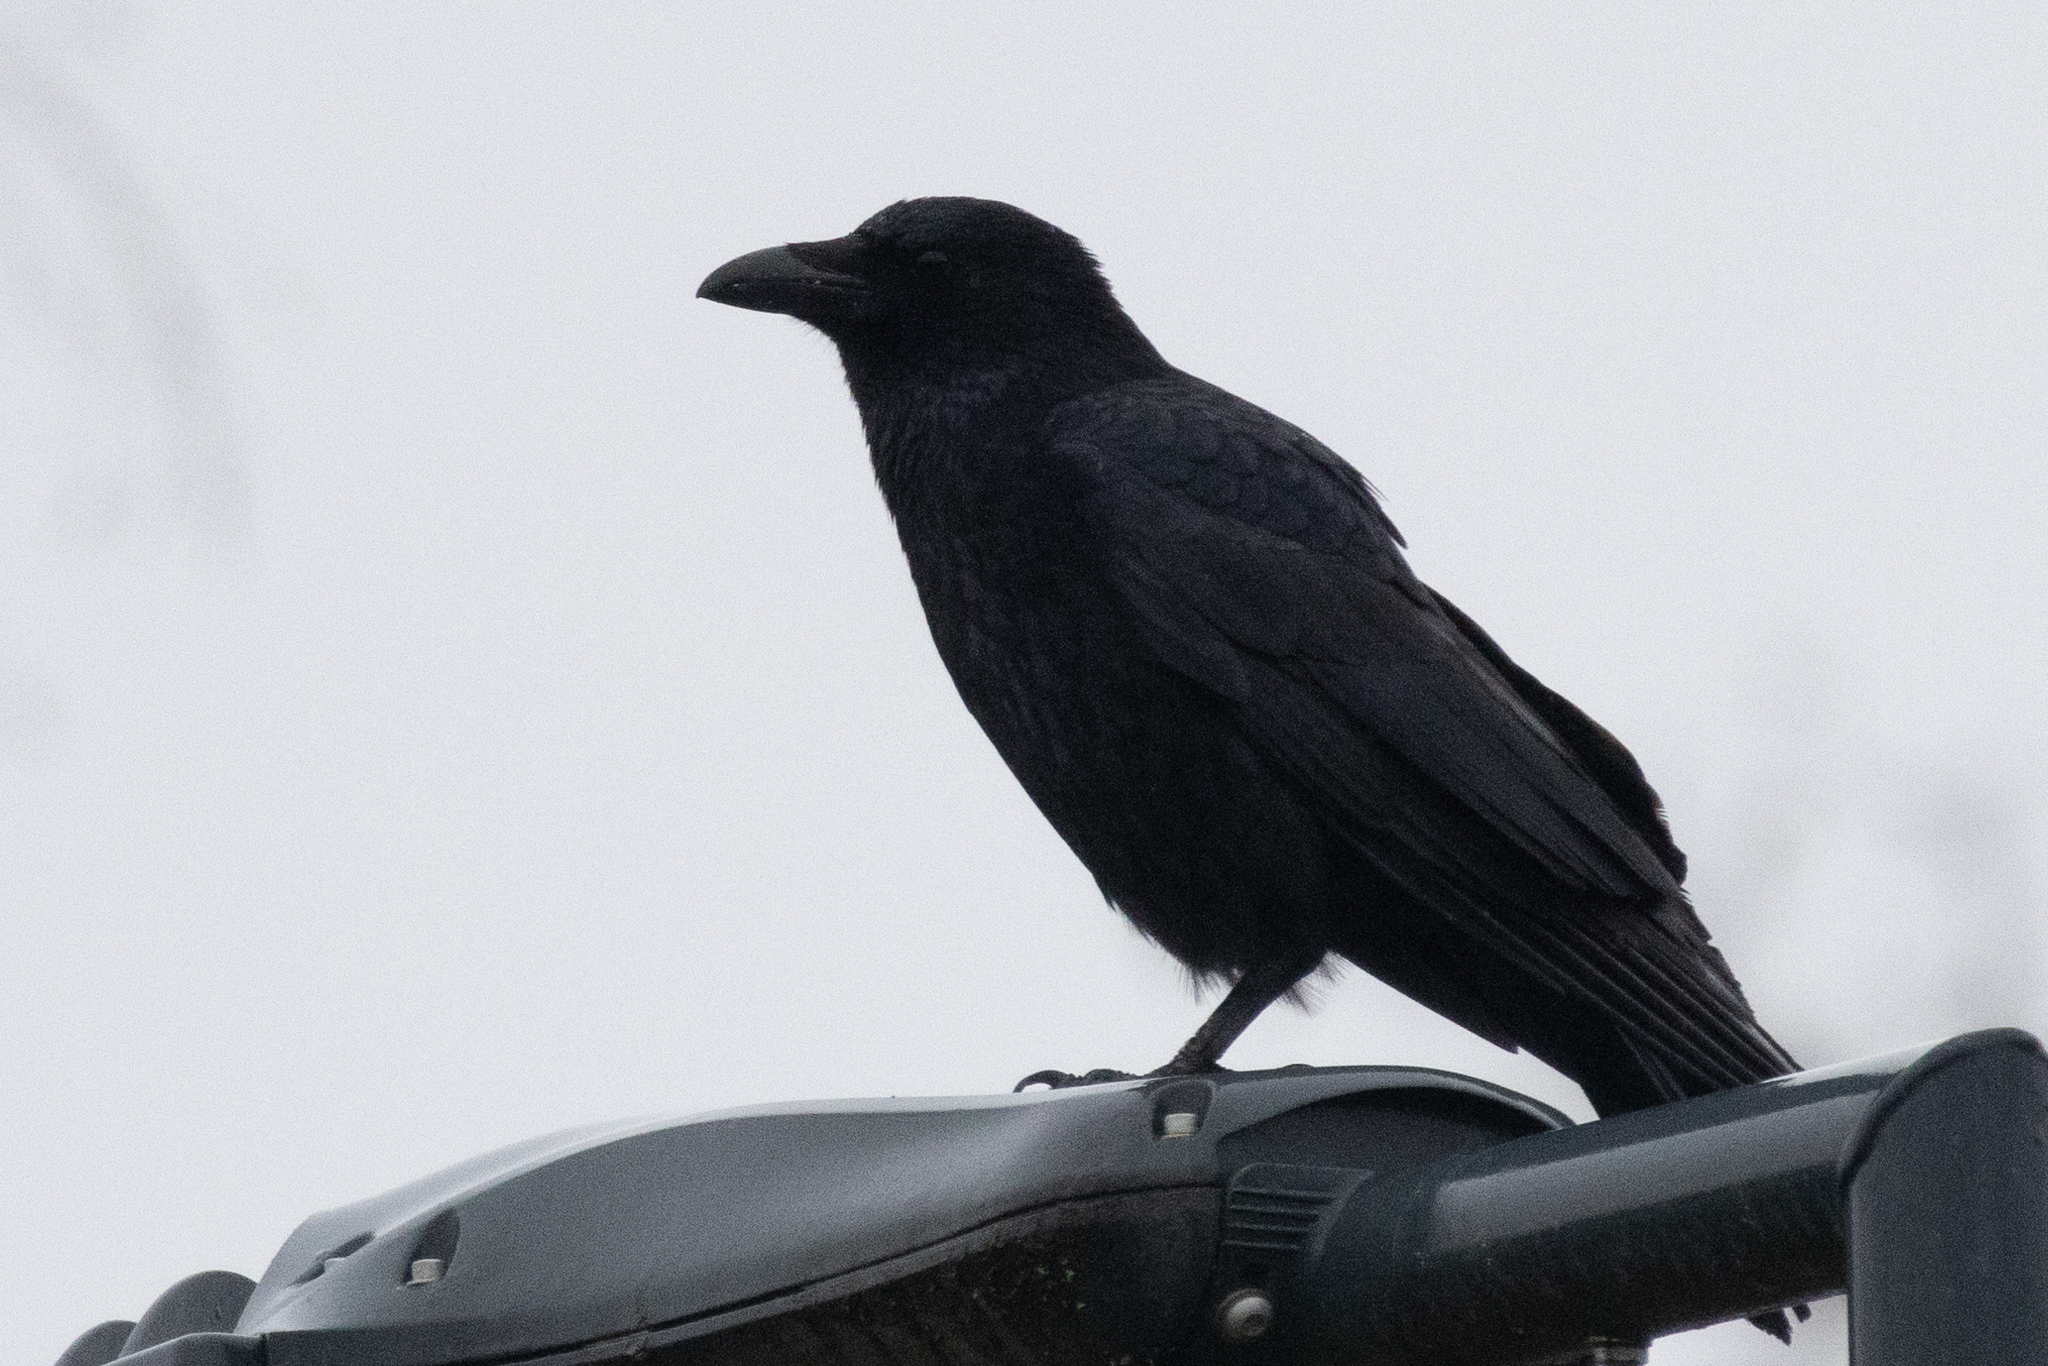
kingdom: Animalia
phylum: Chordata
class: Aves
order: Passeriformes
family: Corvidae
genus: Corvus
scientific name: Corvus corone
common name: Carrion crow
